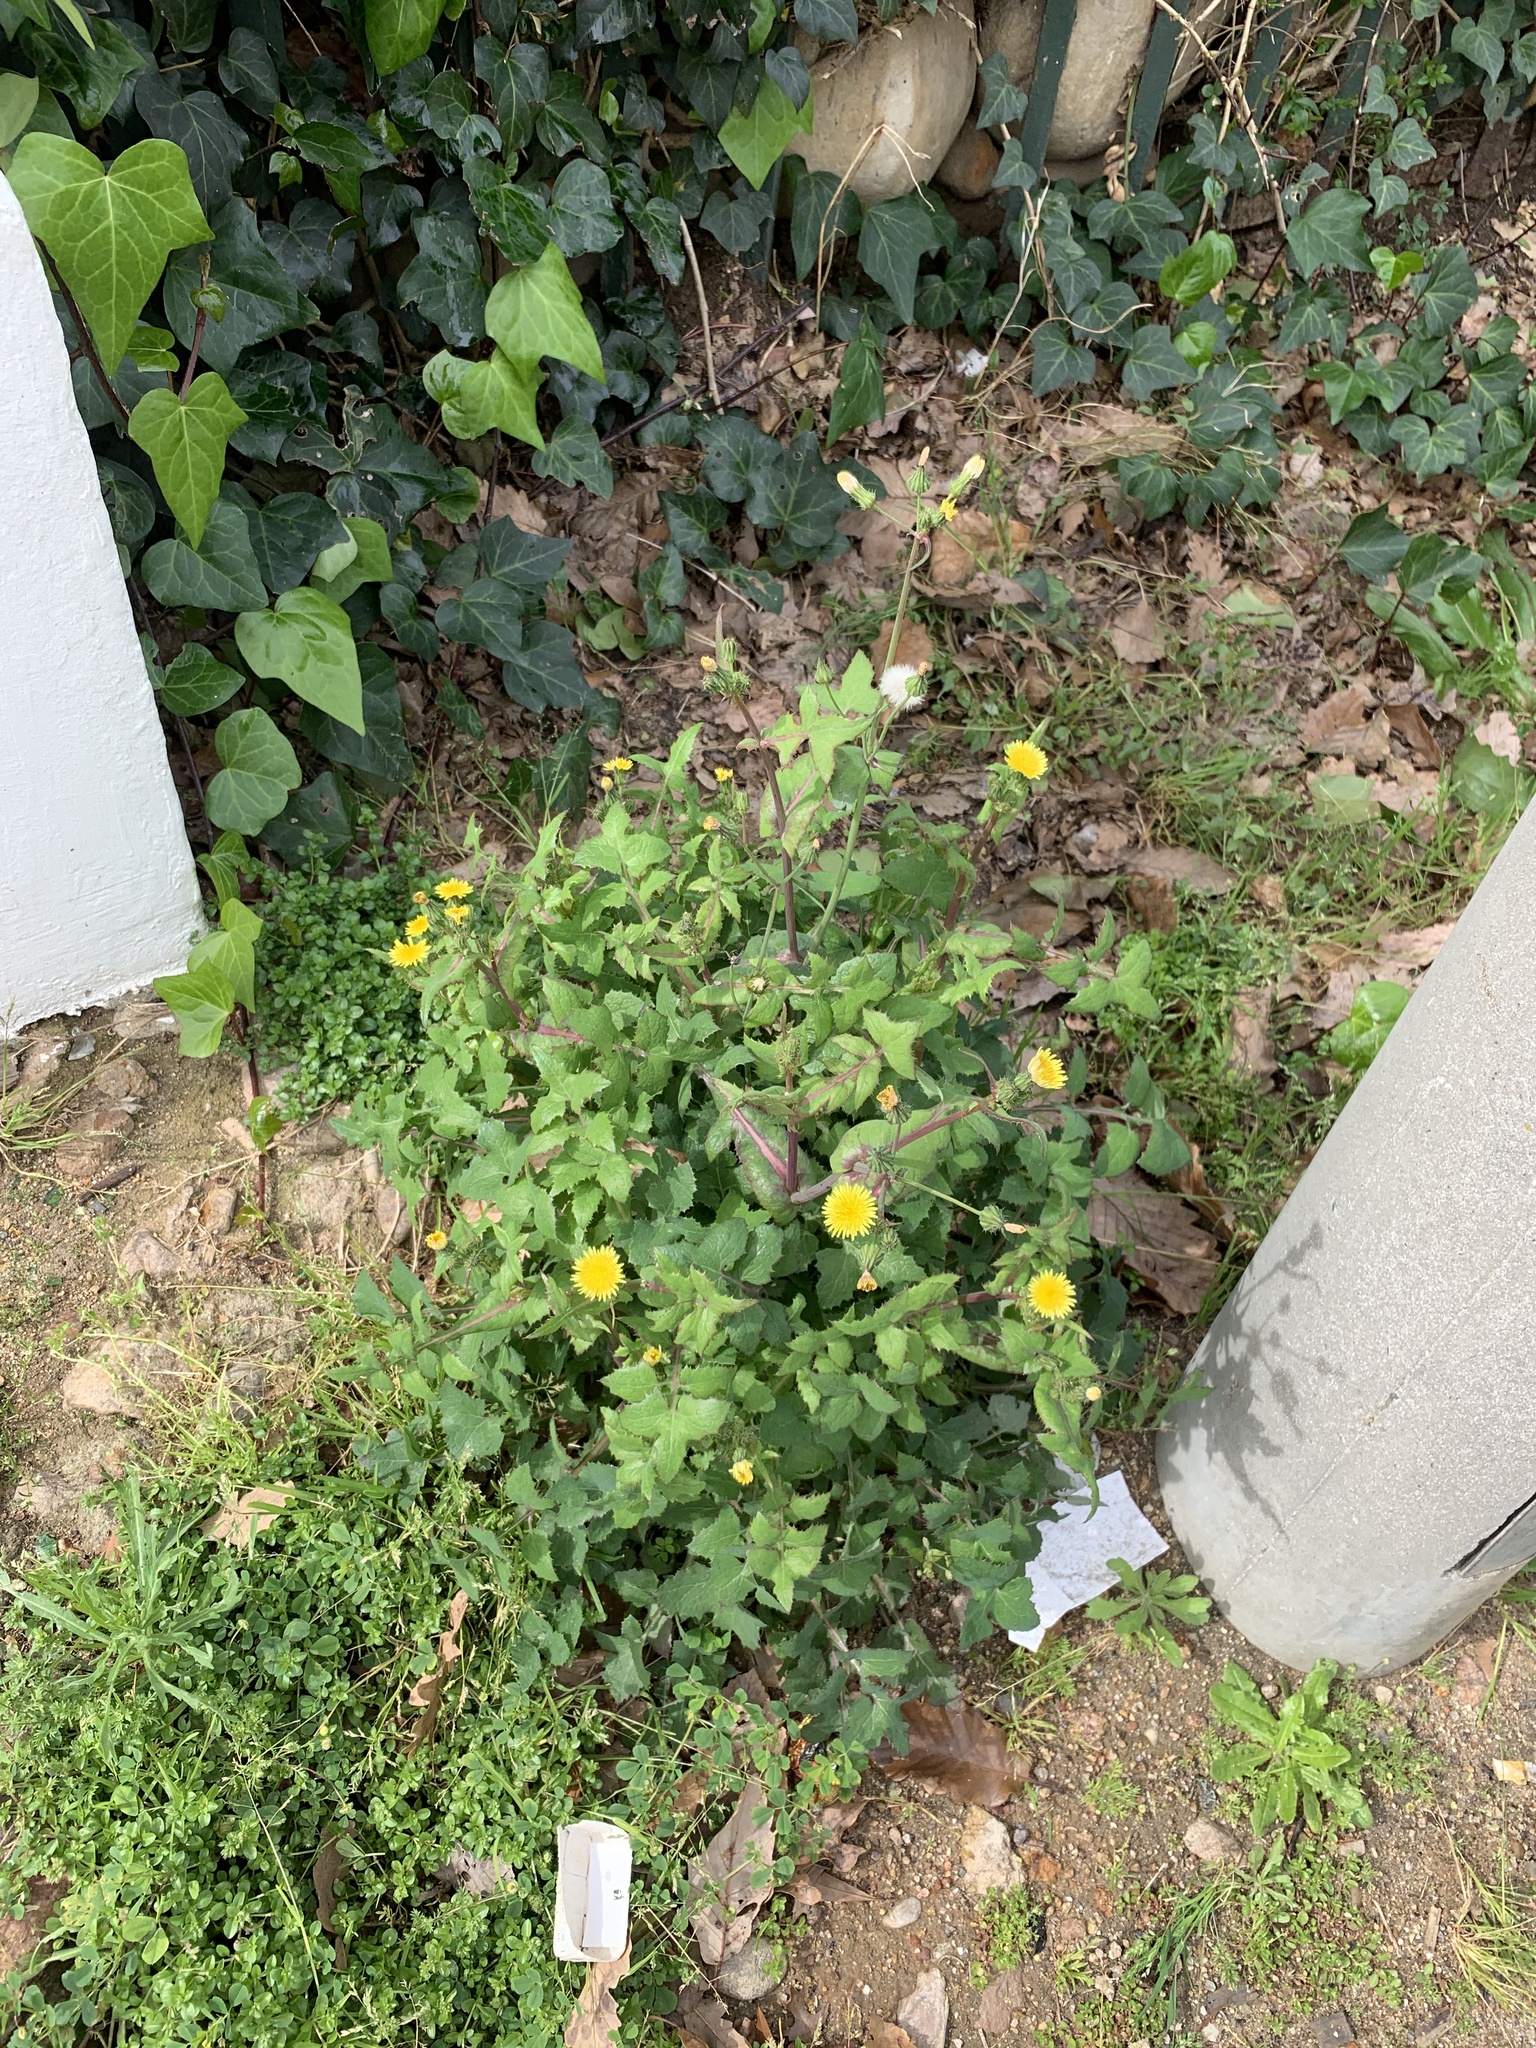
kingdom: Plantae
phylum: Tracheophyta
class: Magnoliopsida
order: Asterales
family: Asteraceae
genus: Sonchus
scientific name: Sonchus oleraceus
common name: Common sowthistle
